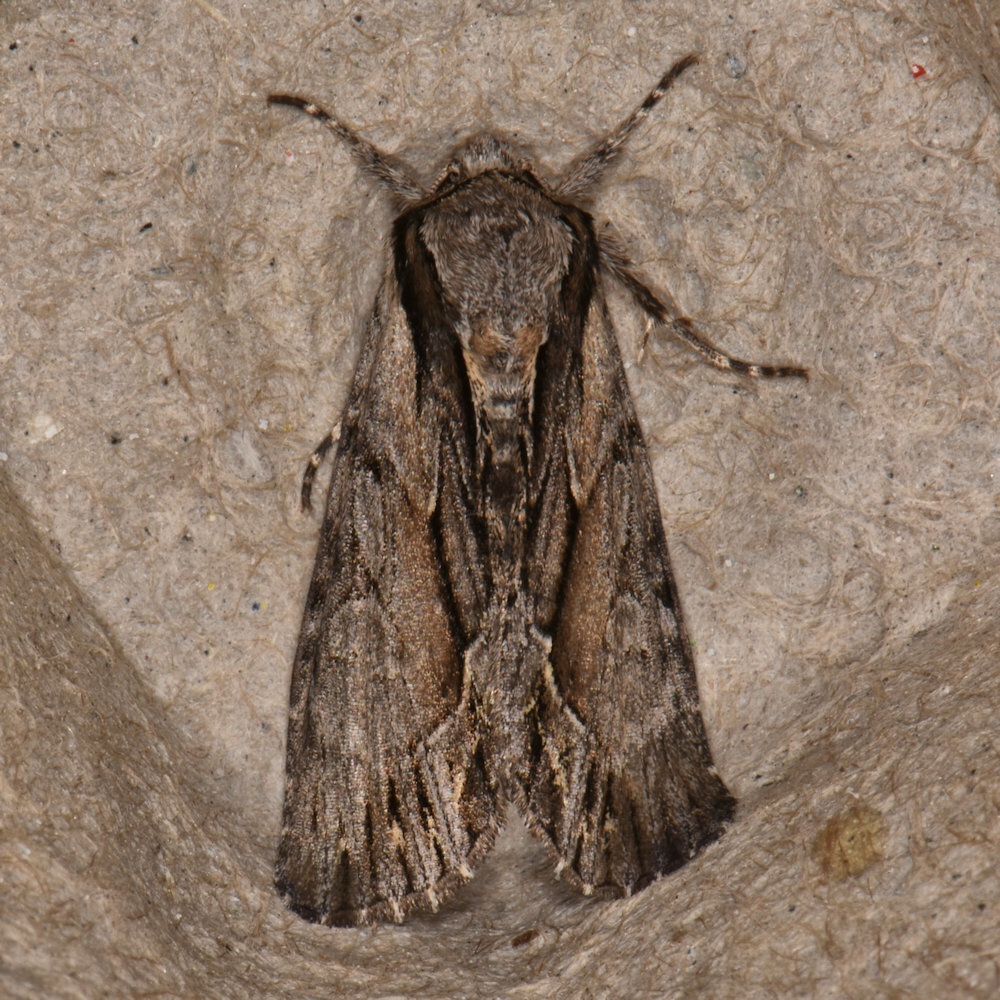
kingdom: Animalia
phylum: Arthropoda
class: Insecta
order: Lepidoptera
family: Noctuidae
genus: Hyppa
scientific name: Hyppa xylinoides
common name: Common hyppa moth
